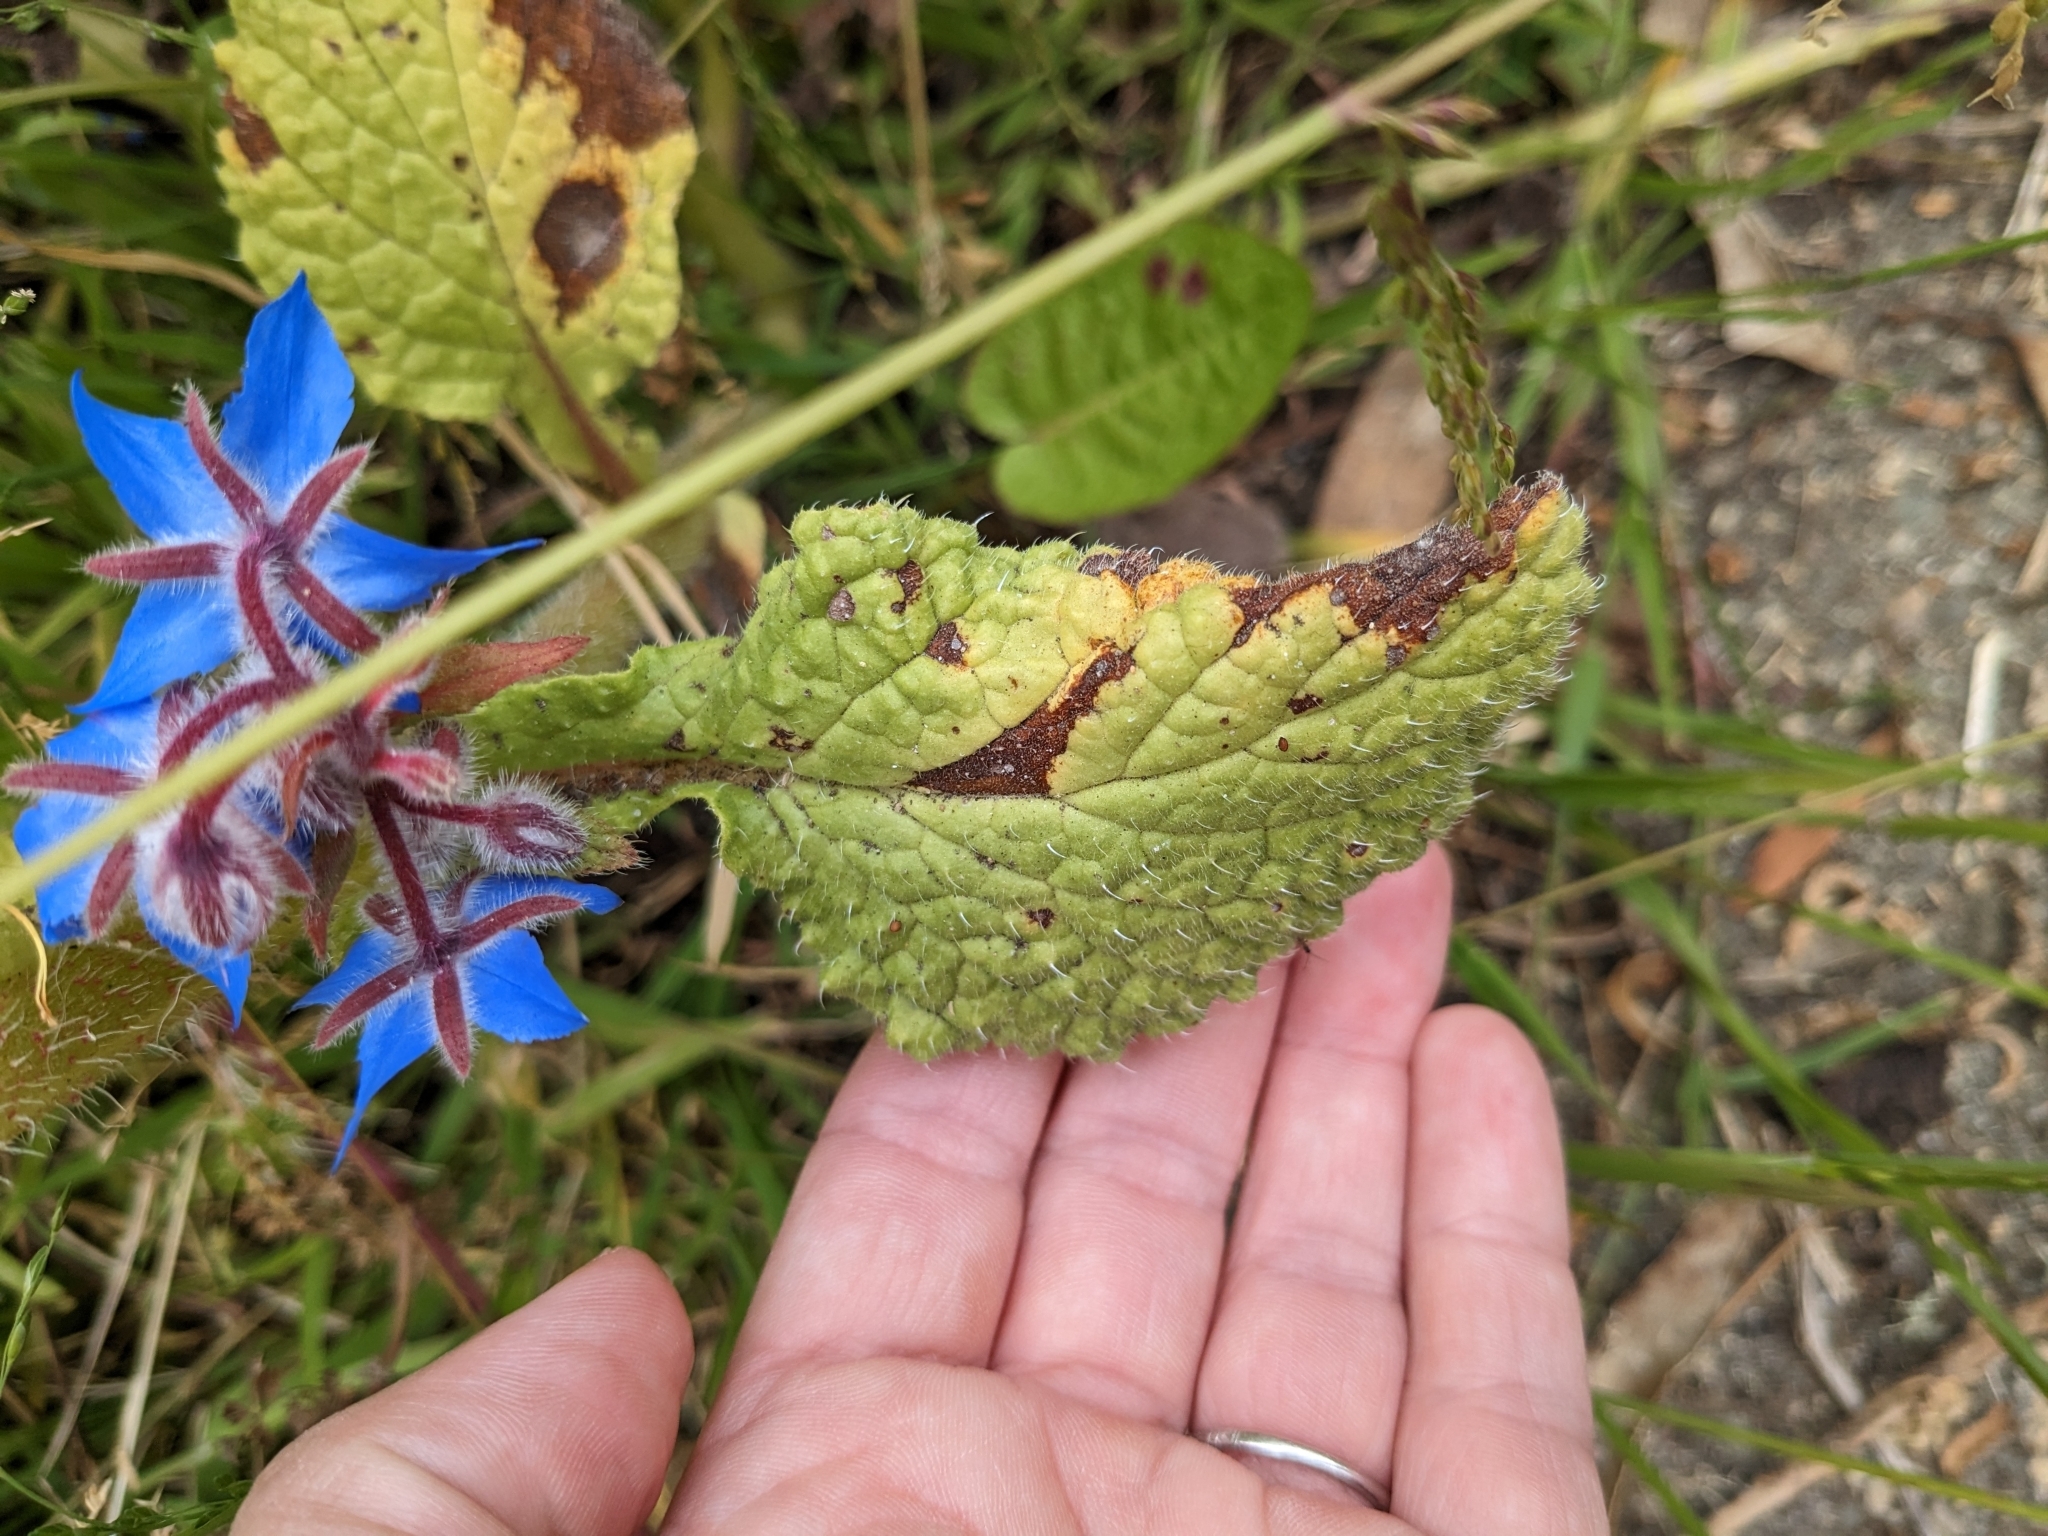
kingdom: Plantae
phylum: Tracheophyta
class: Magnoliopsida
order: Boraginales
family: Boraginaceae
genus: Borago
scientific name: Borago officinalis
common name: Borage
